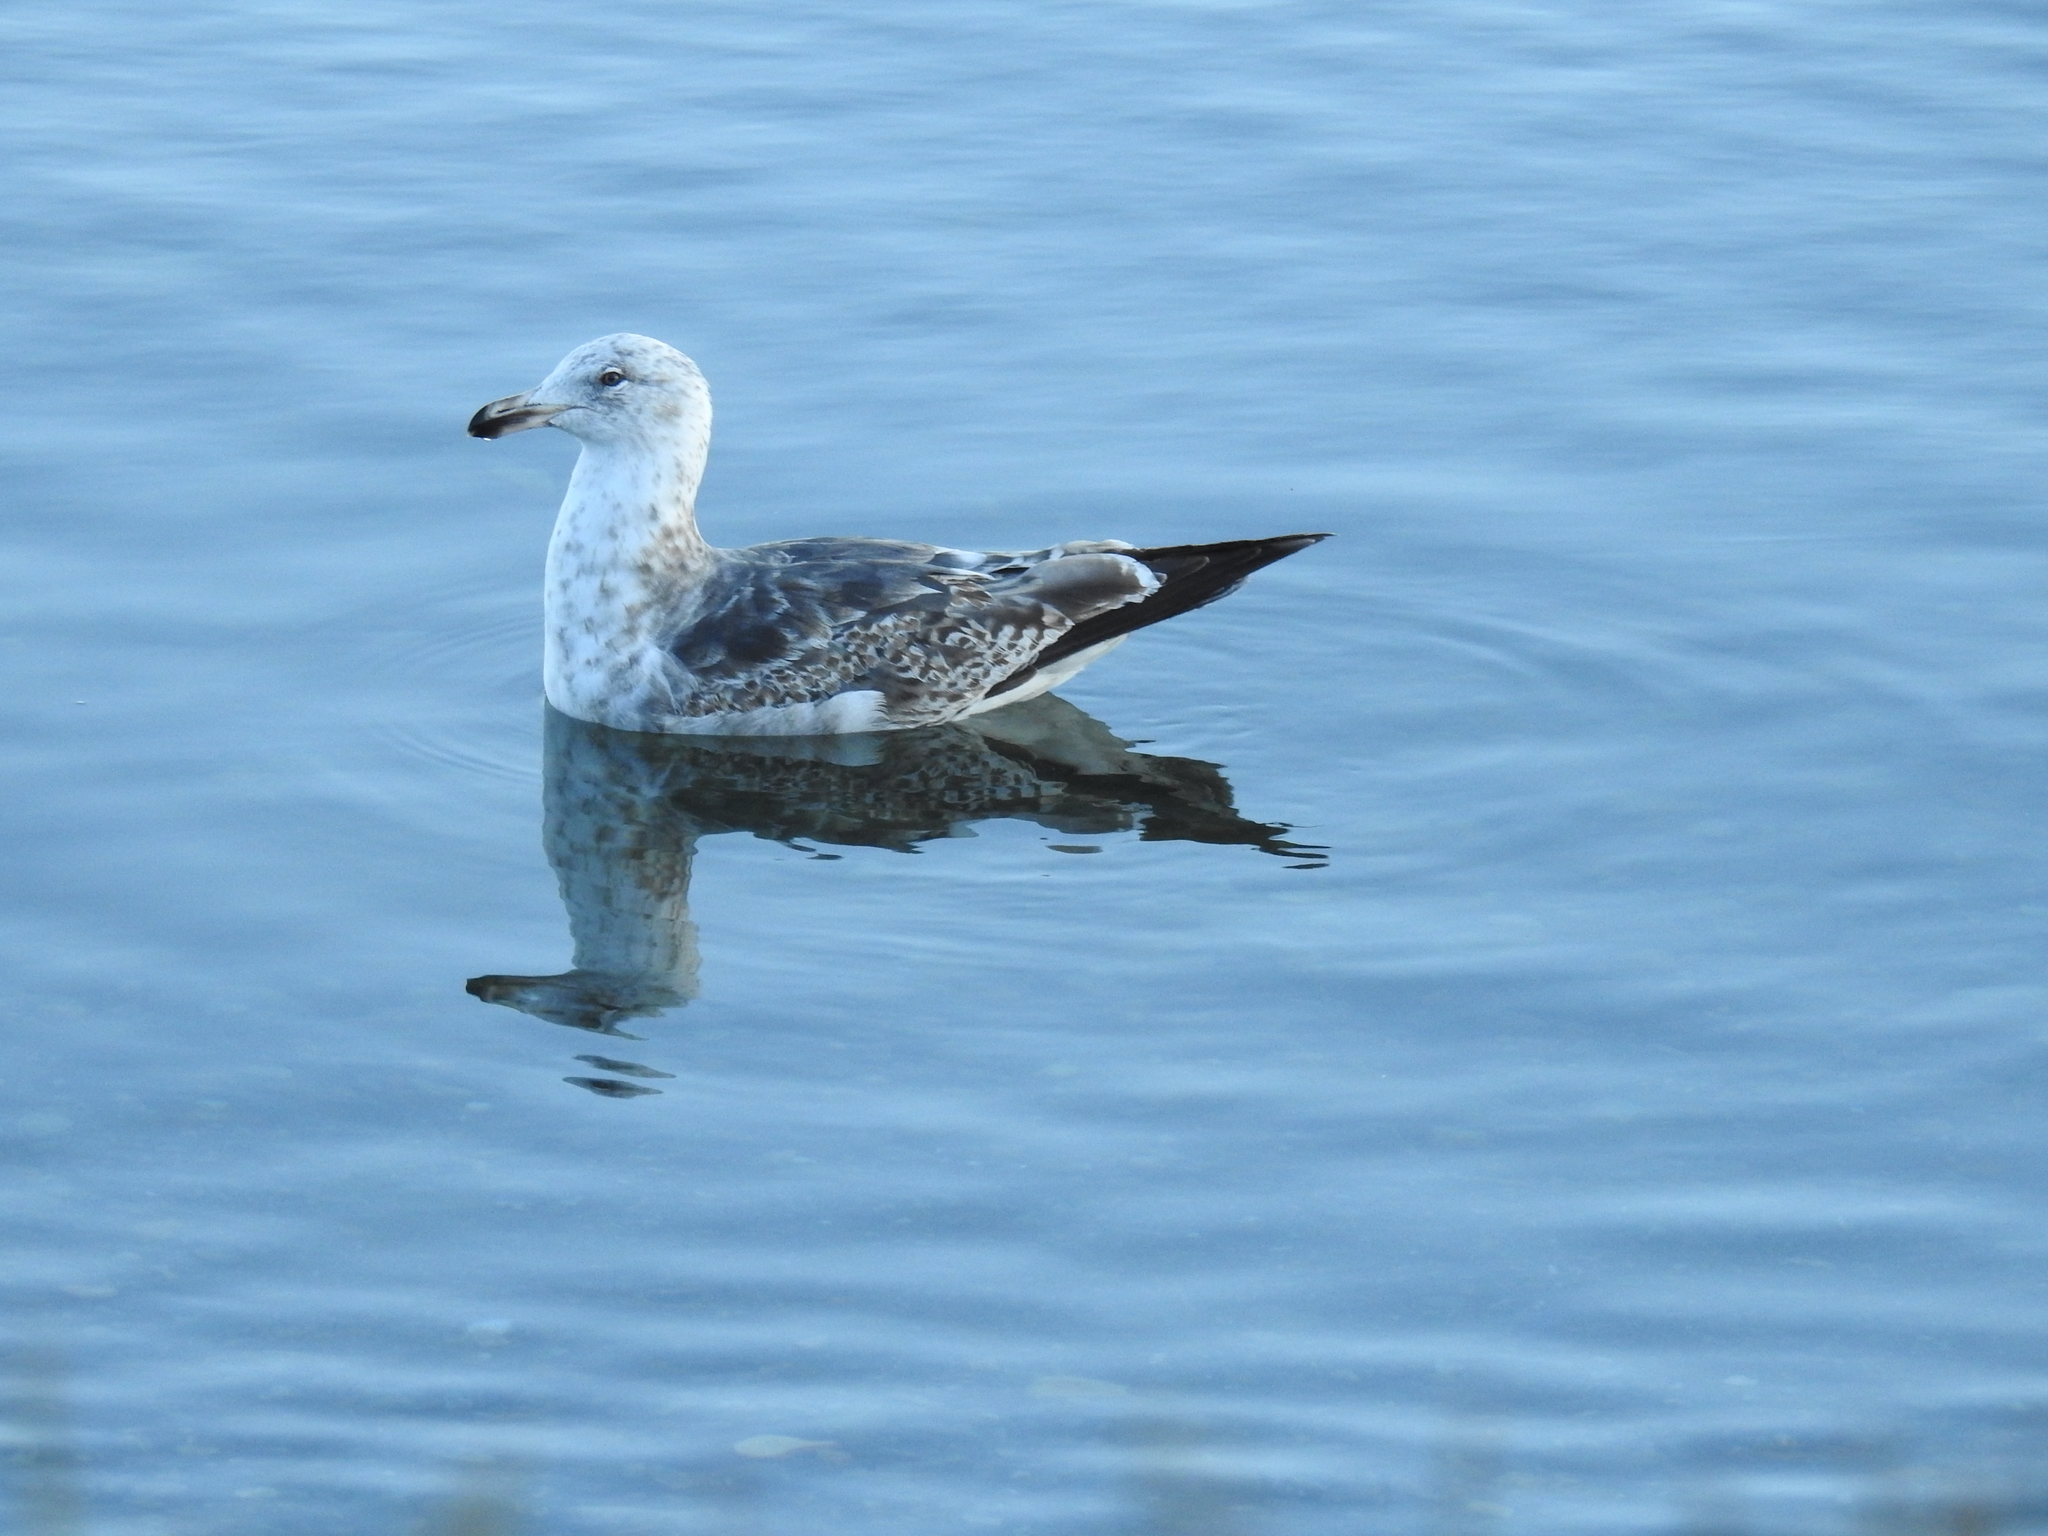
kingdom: Animalia
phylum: Chordata
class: Aves
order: Charadriiformes
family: Laridae
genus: Larus
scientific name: Larus dominicanus
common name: Kelp gull
